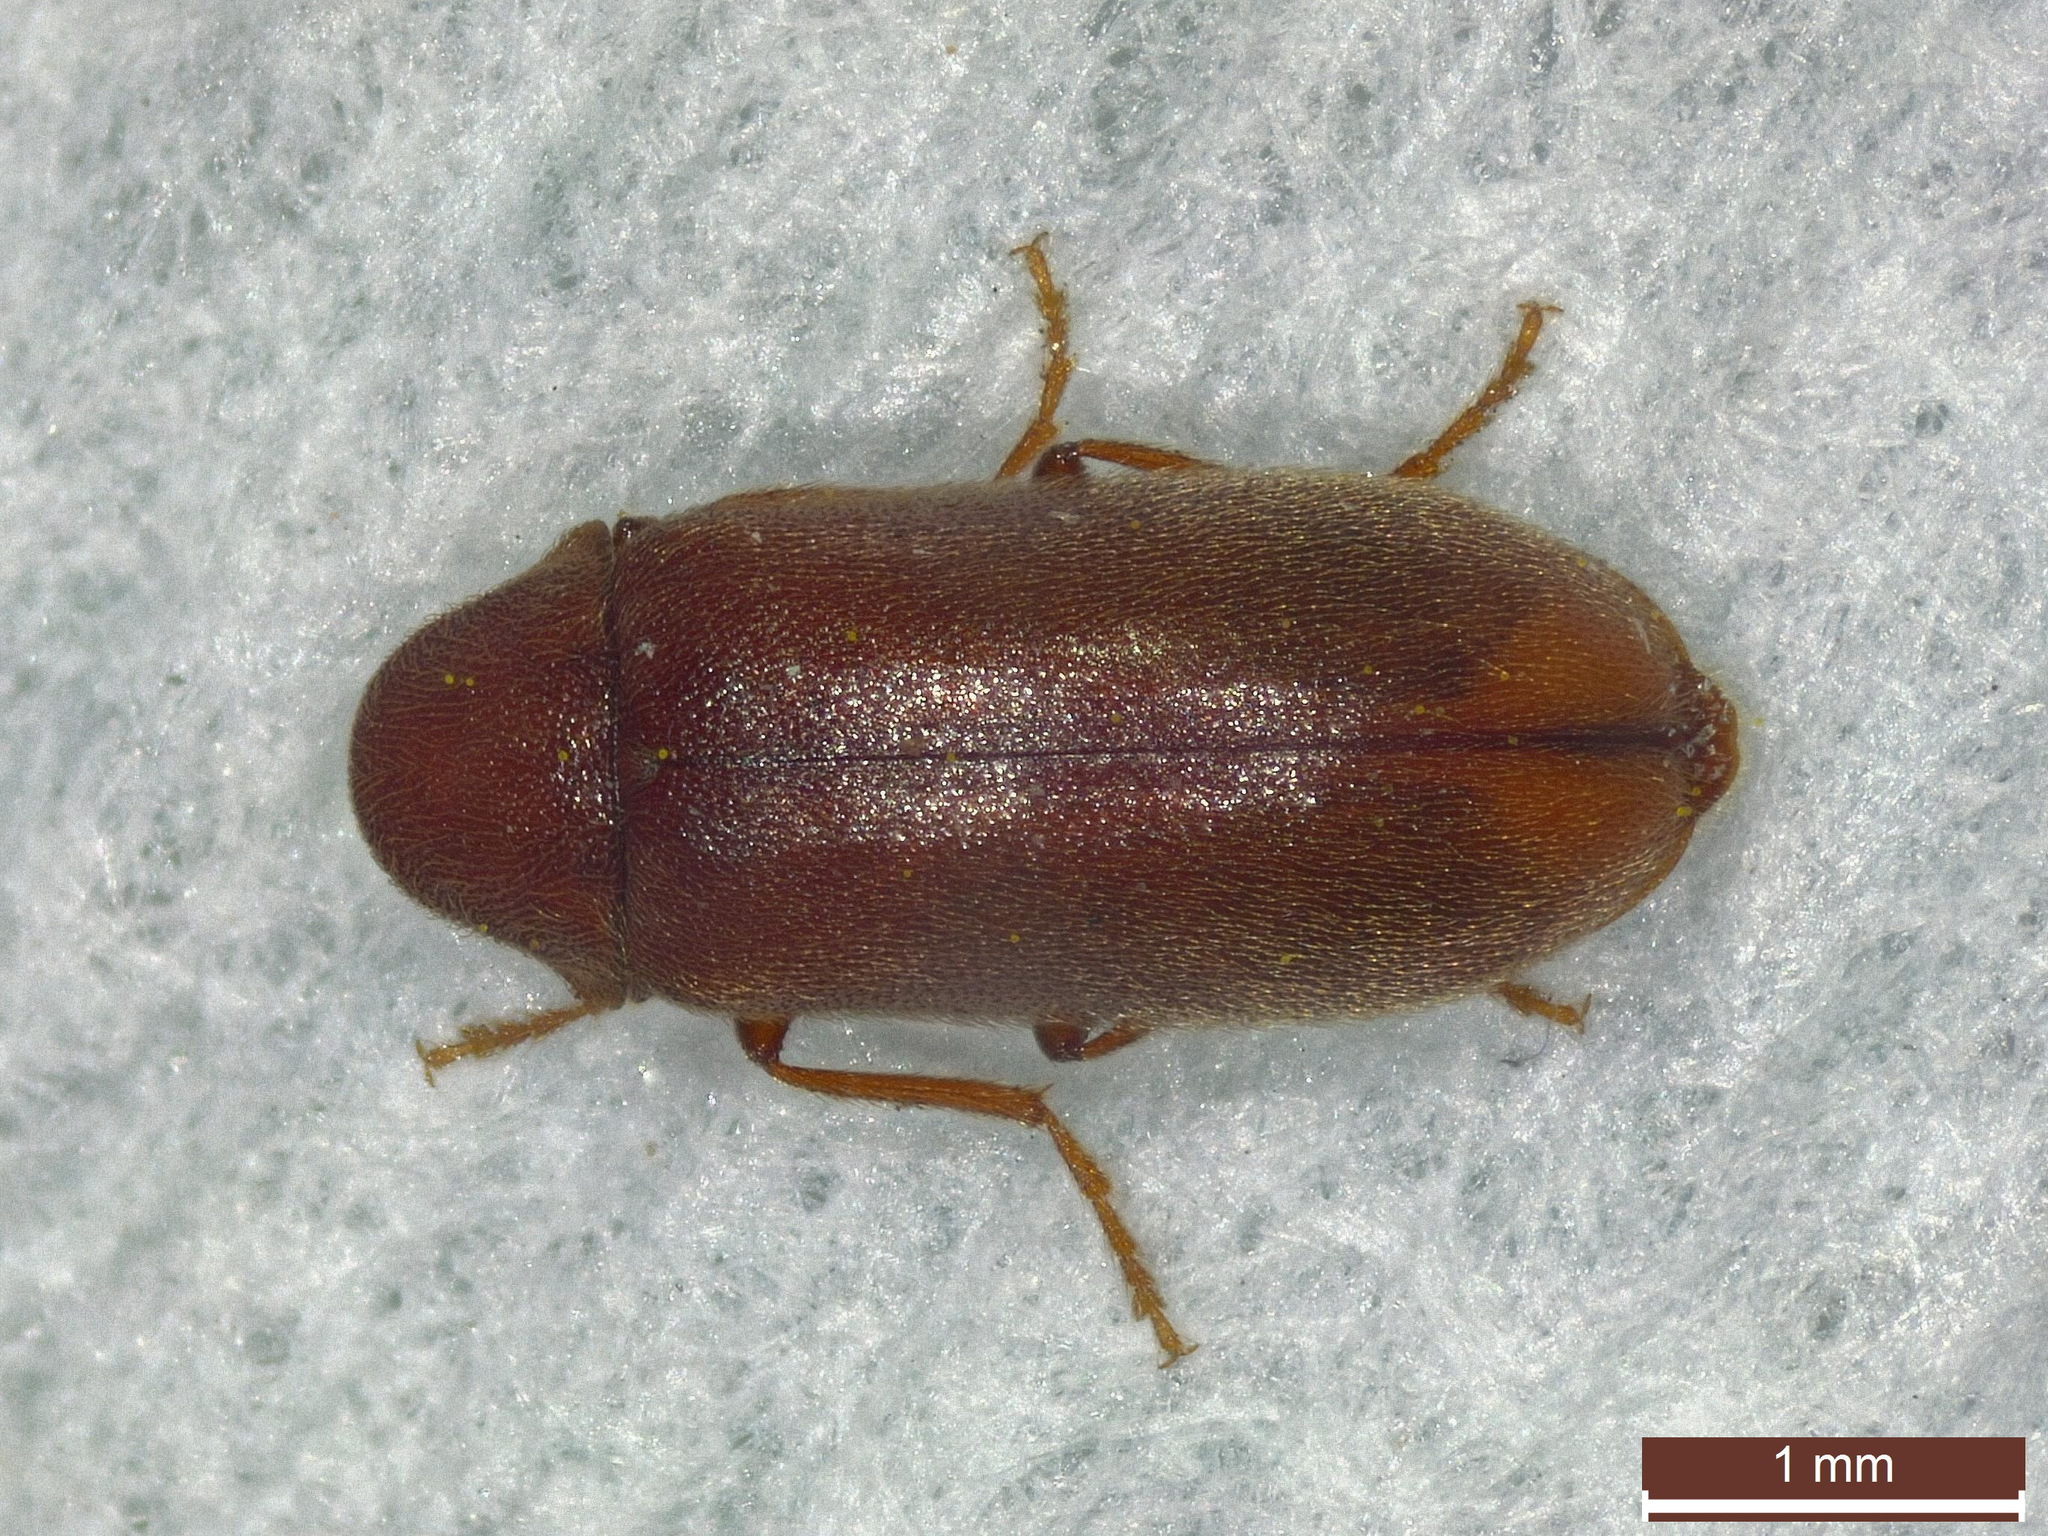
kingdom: Animalia
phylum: Arthropoda
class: Insecta
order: Coleoptera
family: Anobiidae
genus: Ernobius
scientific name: Ernobius mollis
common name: Pine bark anobiid beetle
